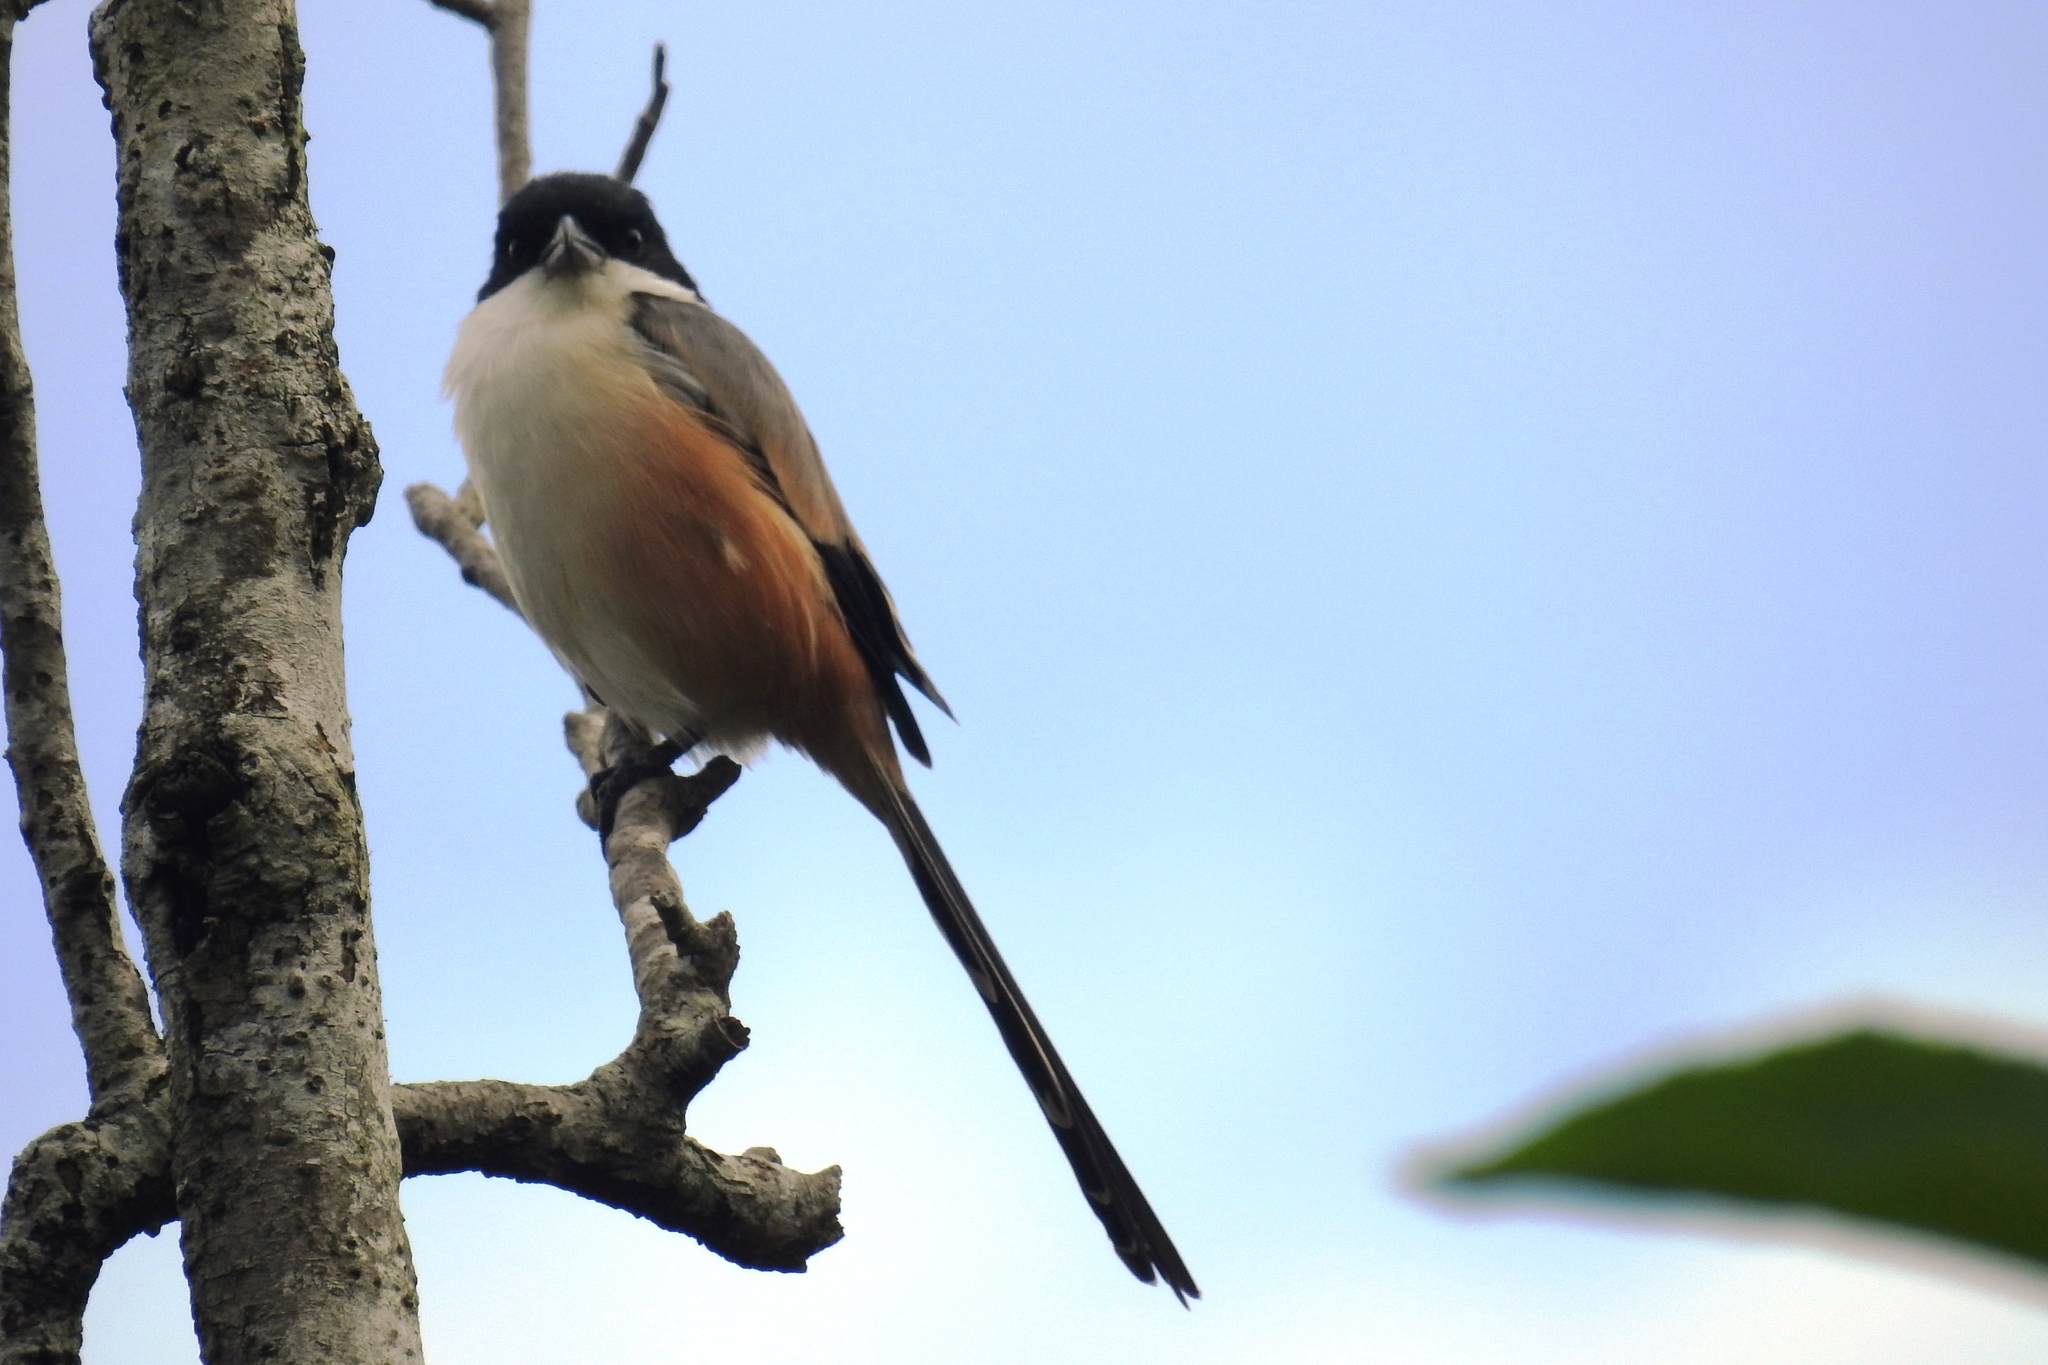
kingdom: Animalia
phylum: Chordata
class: Aves
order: Passeriformes
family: Laniidae
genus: Lanius
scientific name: Lanius schach
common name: Long-tailed shrike
